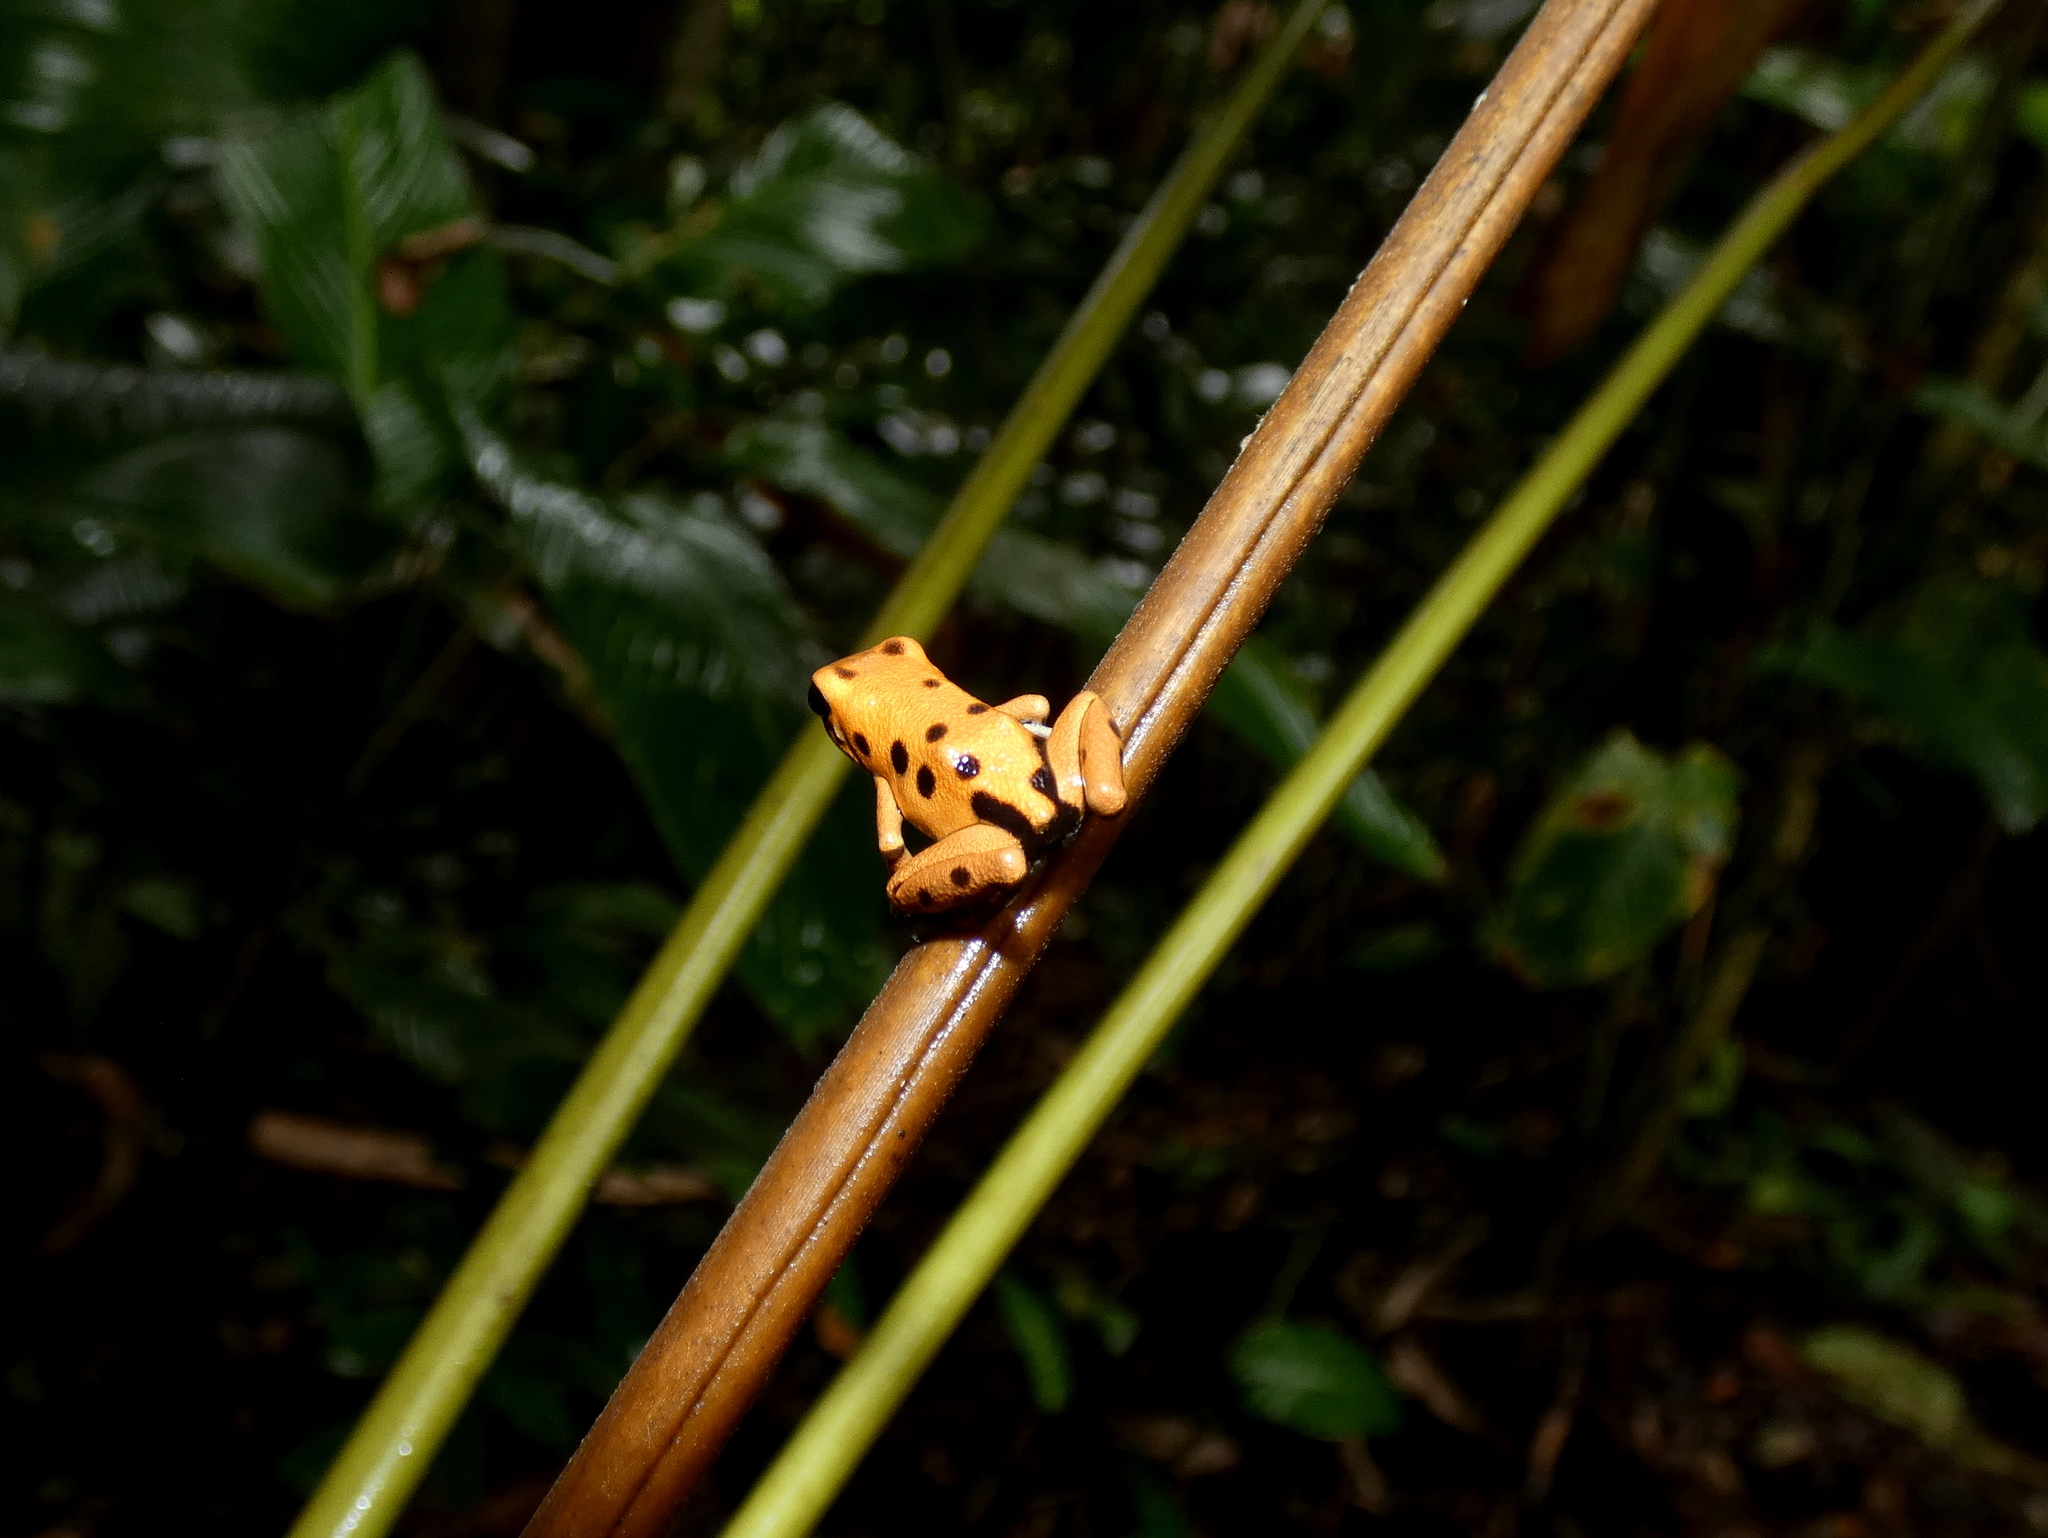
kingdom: Animalia
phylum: Chordata
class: Amphibia
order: Anura
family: Dendrobatidae
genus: Oophaga
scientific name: Oophaga pumilio
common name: Flaming poison frog
